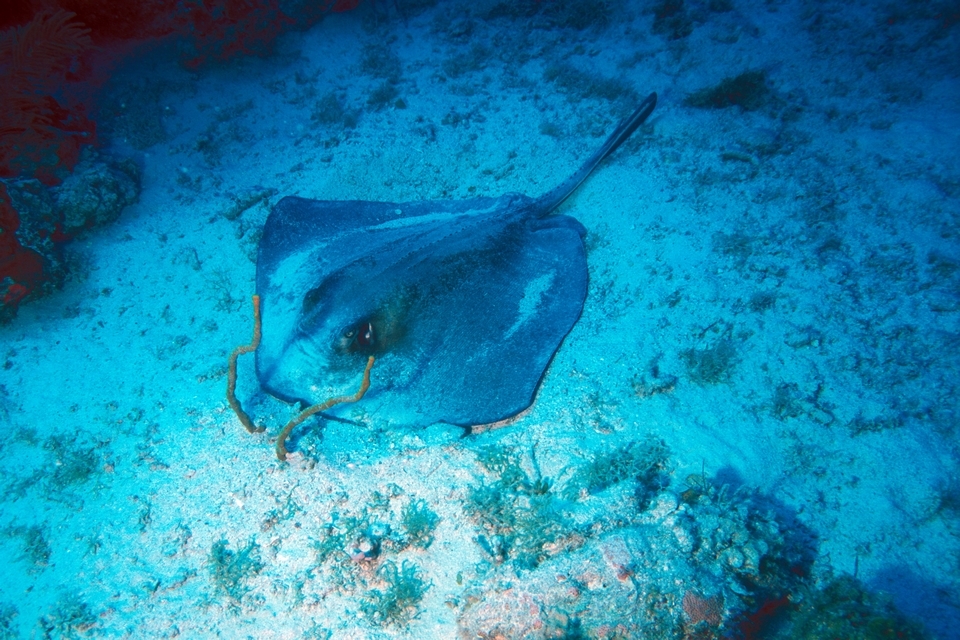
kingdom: Animalia
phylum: Chordata
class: Elasmobranchii
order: Myliobatiformes
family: Dasyatidae
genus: Hypanus
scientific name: Hypanus americanus
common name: Southern stingray
